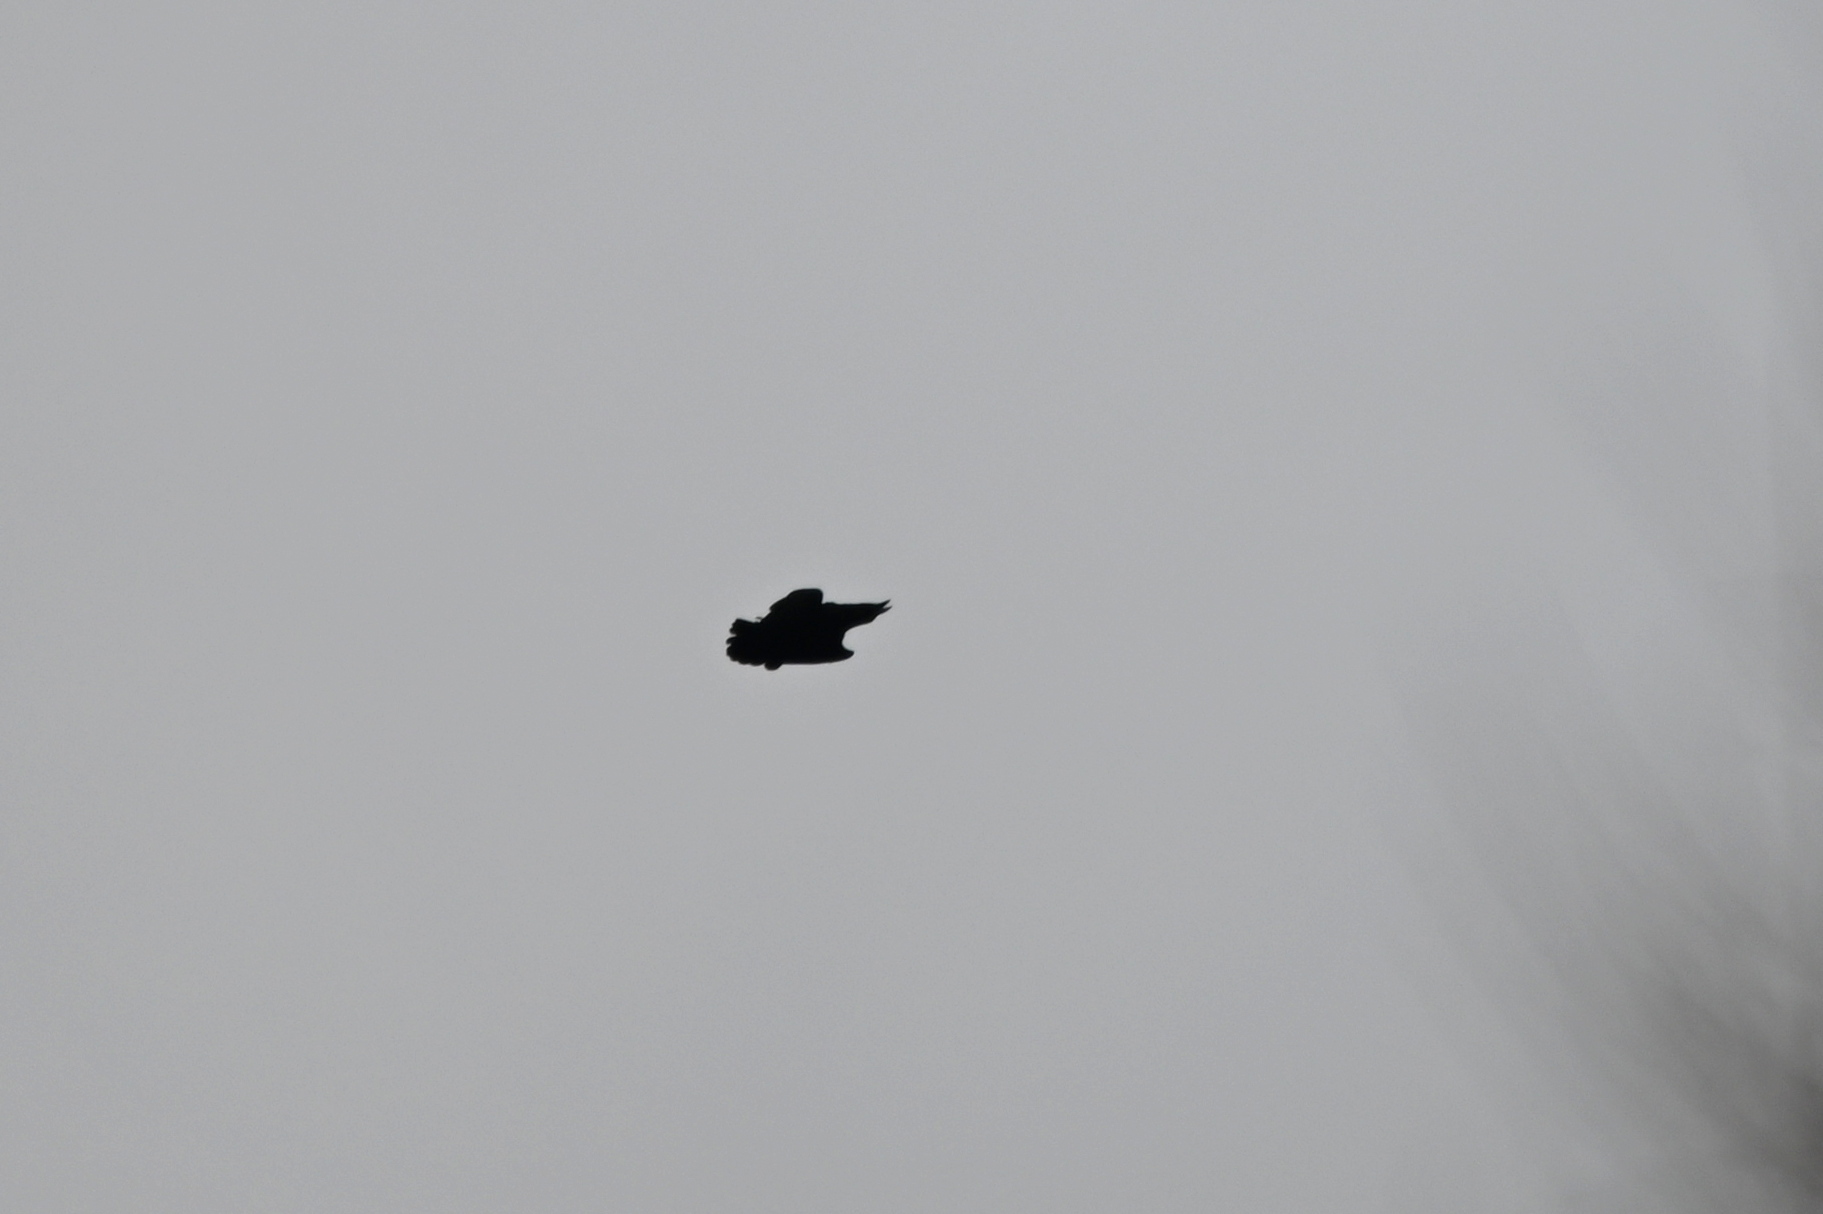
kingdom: Animalia
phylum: Chordata
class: Aves
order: Passeriformes
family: Corvidae
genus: Corvus
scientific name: Corvus corax
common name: Common raven
